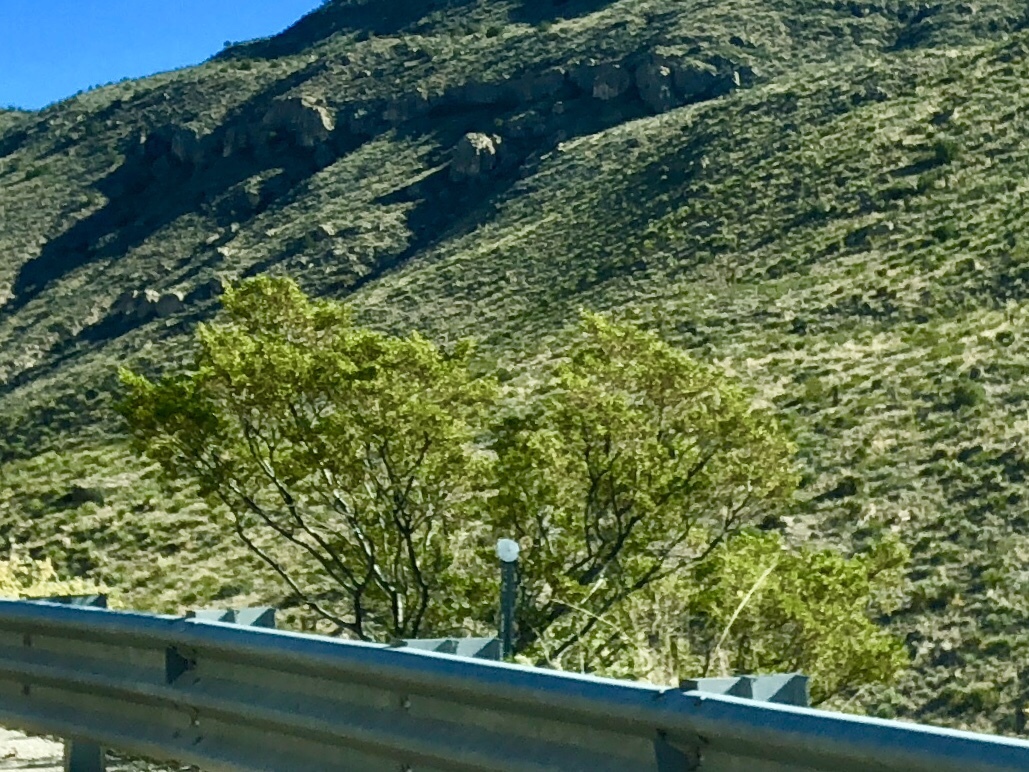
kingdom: Plantae
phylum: Tracheophyta
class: Magnoliopsida
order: Zygophyllales
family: Zygophyllaceae
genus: Larrea
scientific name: Larrea tridentata
